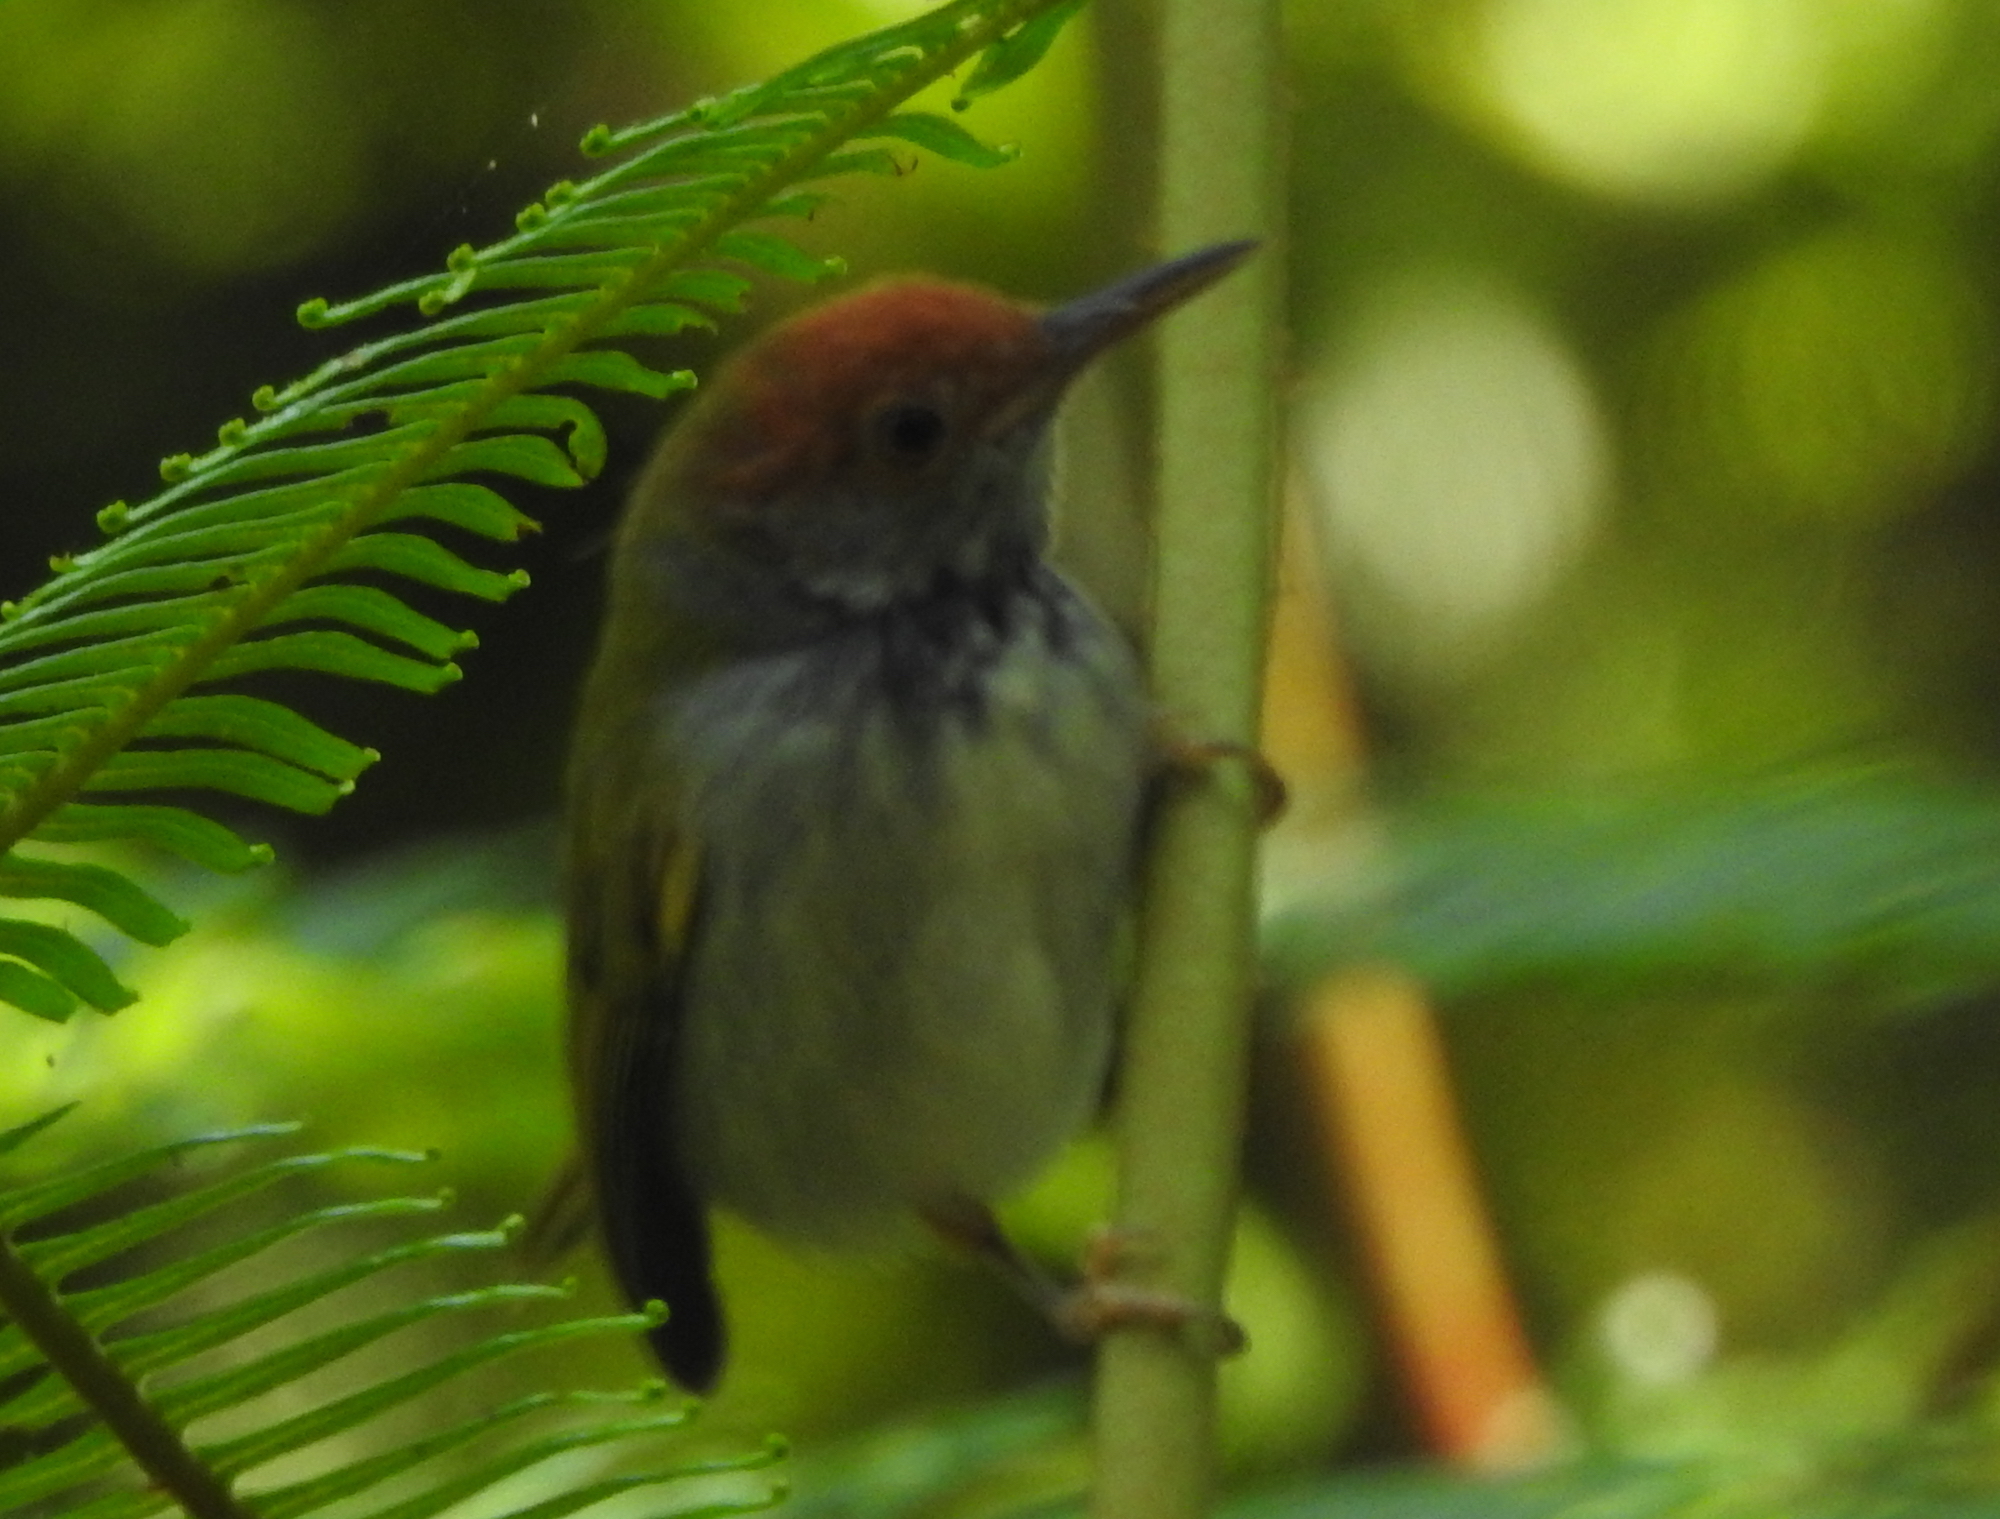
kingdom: Animalia
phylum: Chordata
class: Aves
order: Passeriformes
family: Cisticolidae
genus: Orthotomus
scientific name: Orthotomus atrogularis
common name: Dark-necked tailorbird
